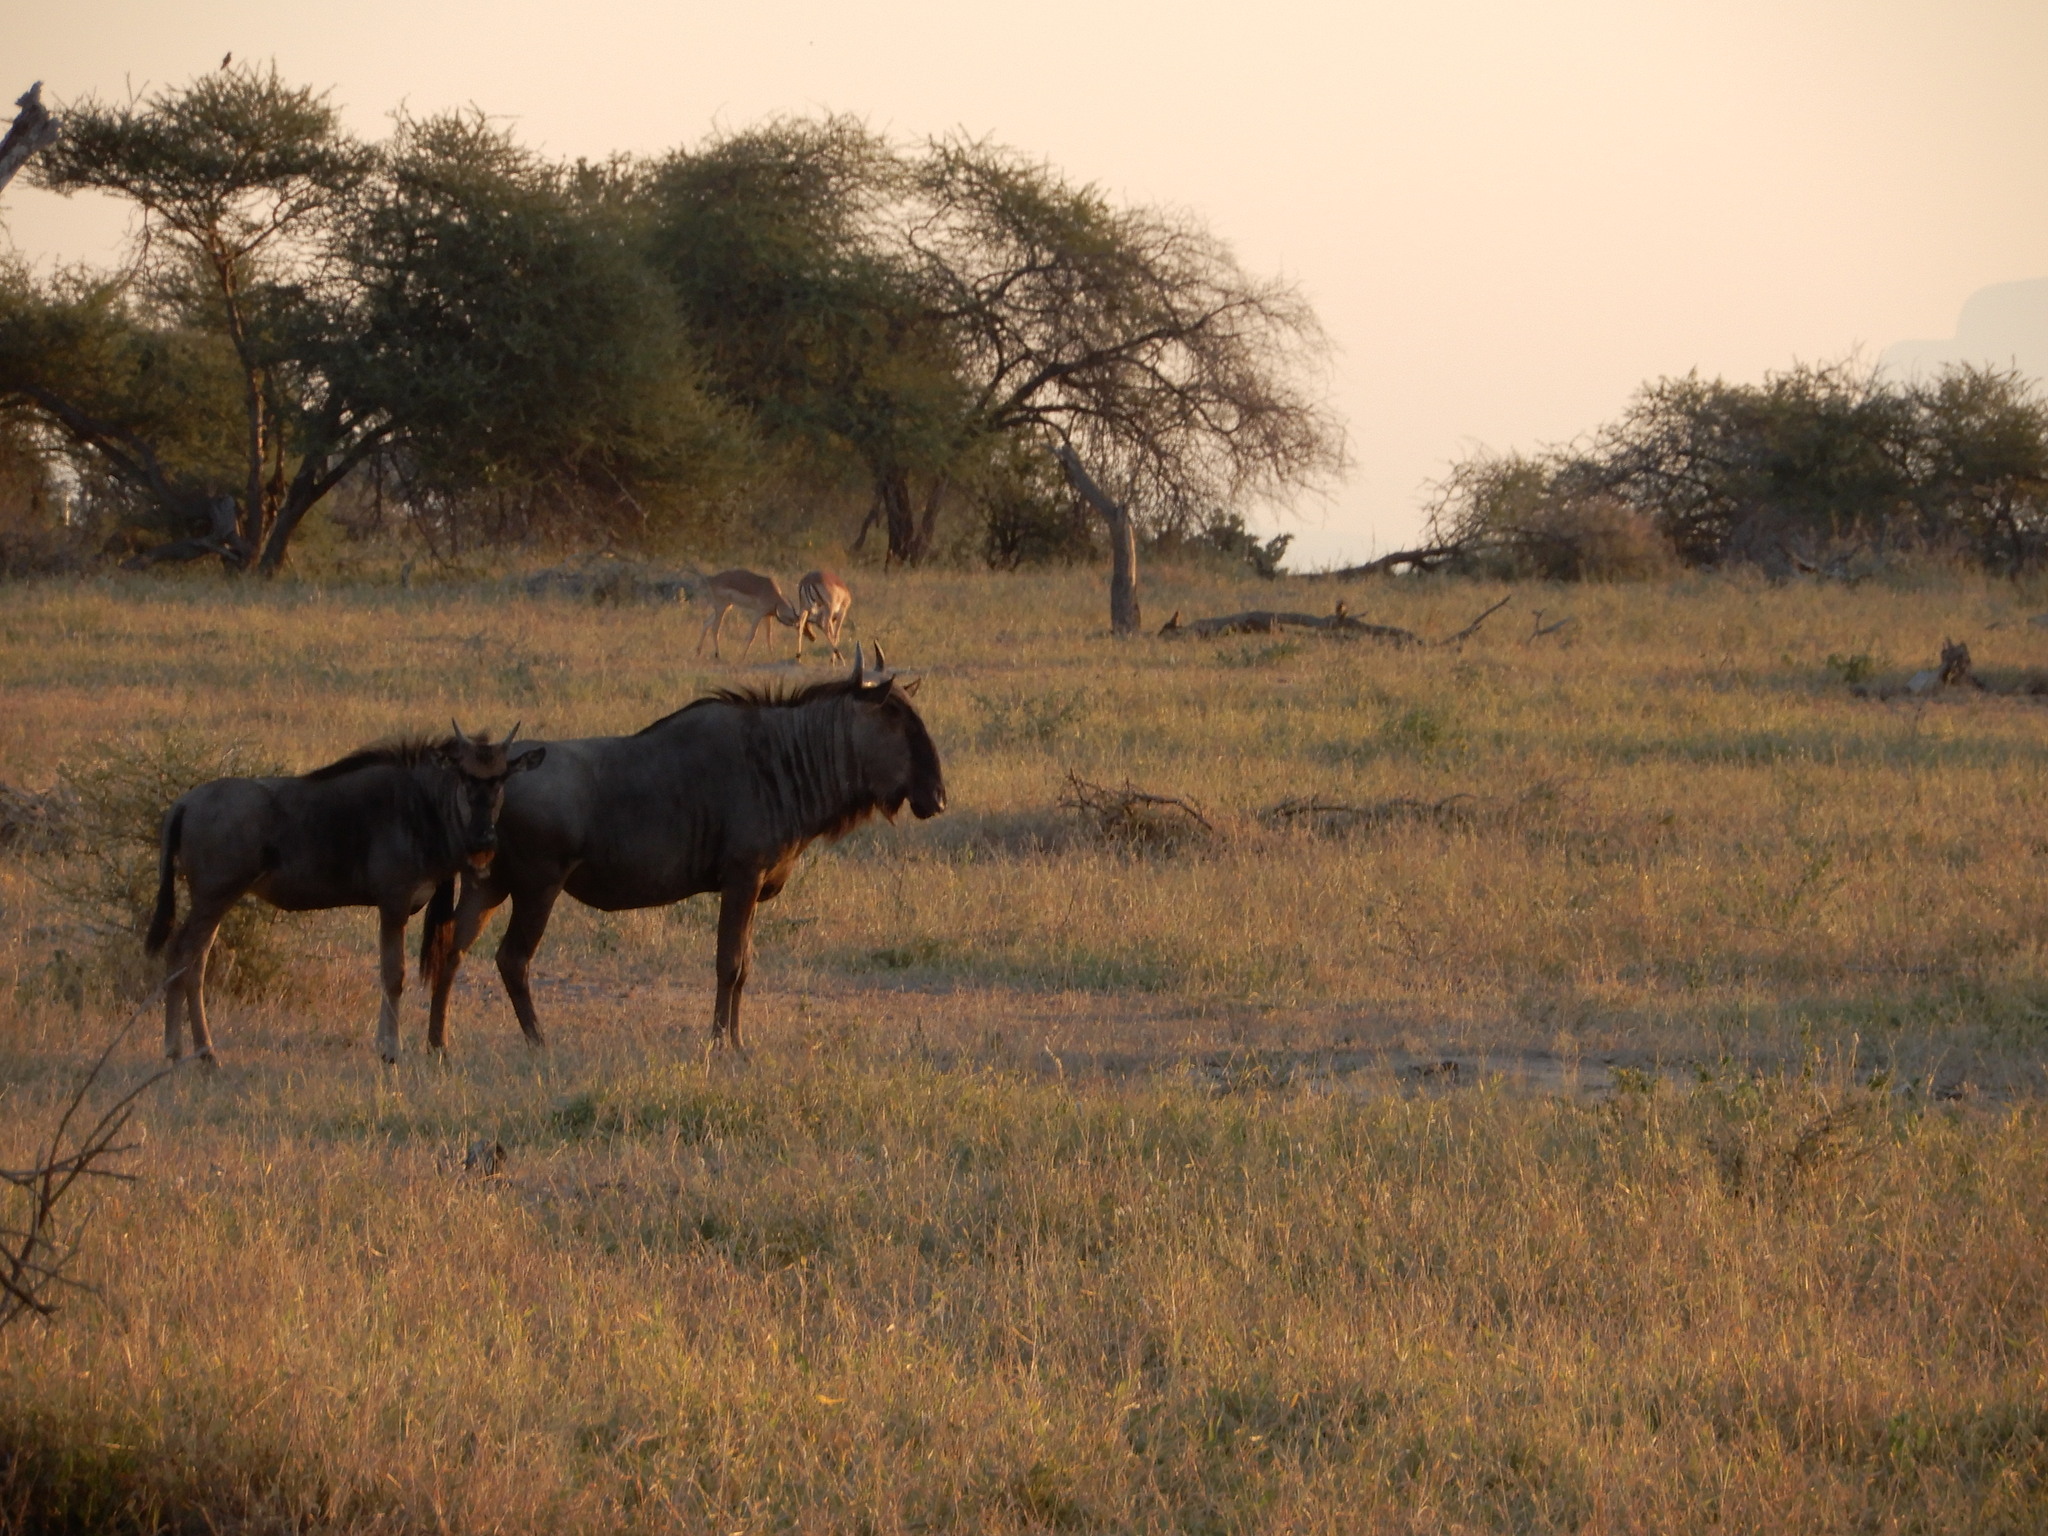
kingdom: Animalia
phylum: Chordata
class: Mammalia
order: Artiodactyla
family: Bovidae
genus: Connochaetes
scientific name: Connochaetes taurinus
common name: Blue wildebeest
